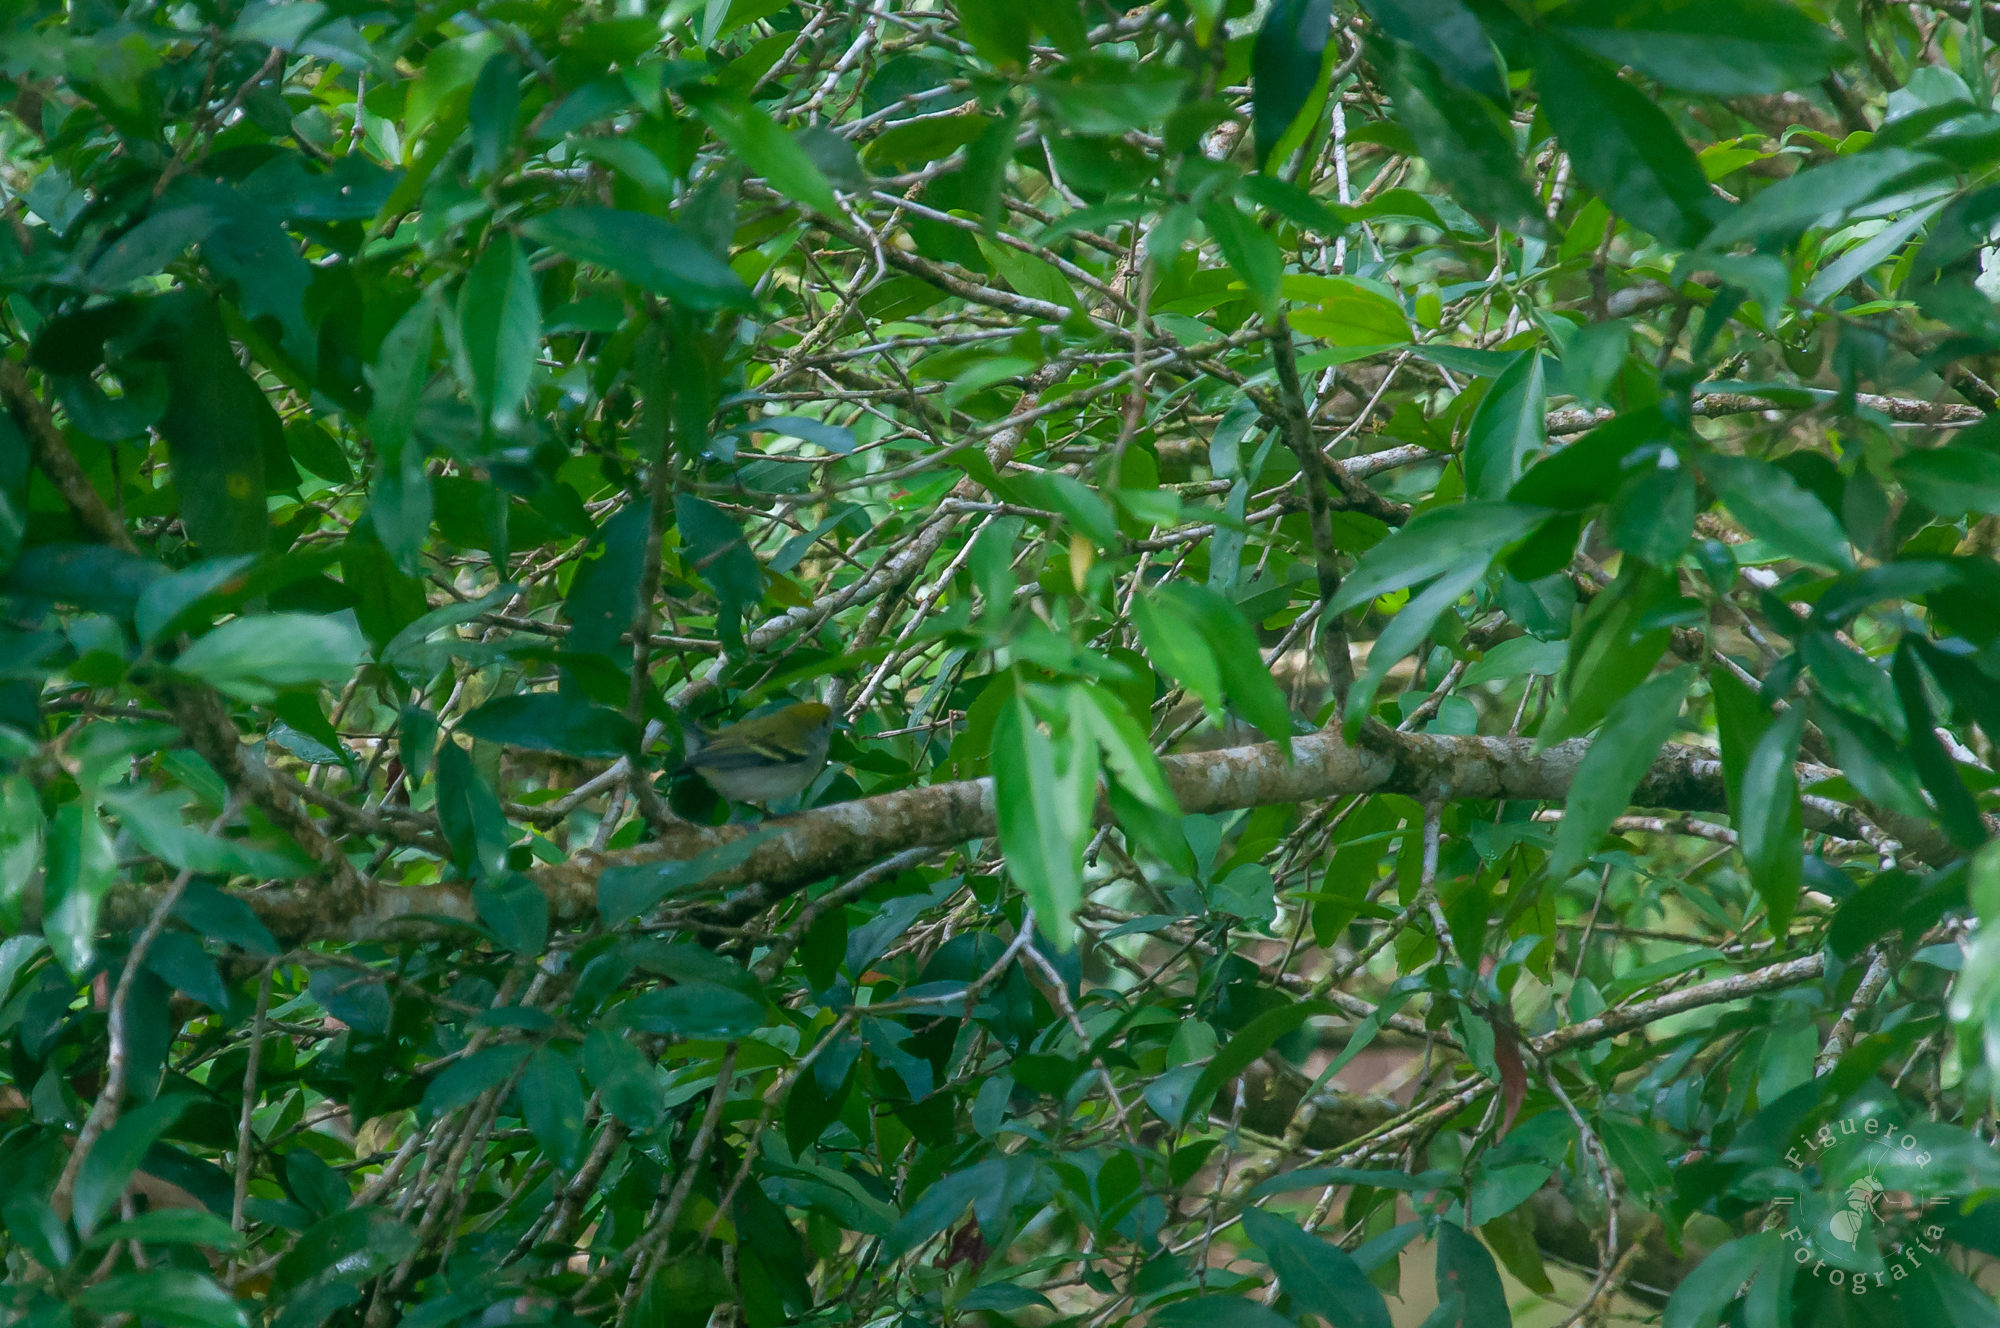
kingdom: Animalia
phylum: Chordata
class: Aves
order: Passeriformes
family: Parulidae
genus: Setophaga
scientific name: Setophaga pensylvanica
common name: Chestnut-sided warbler
